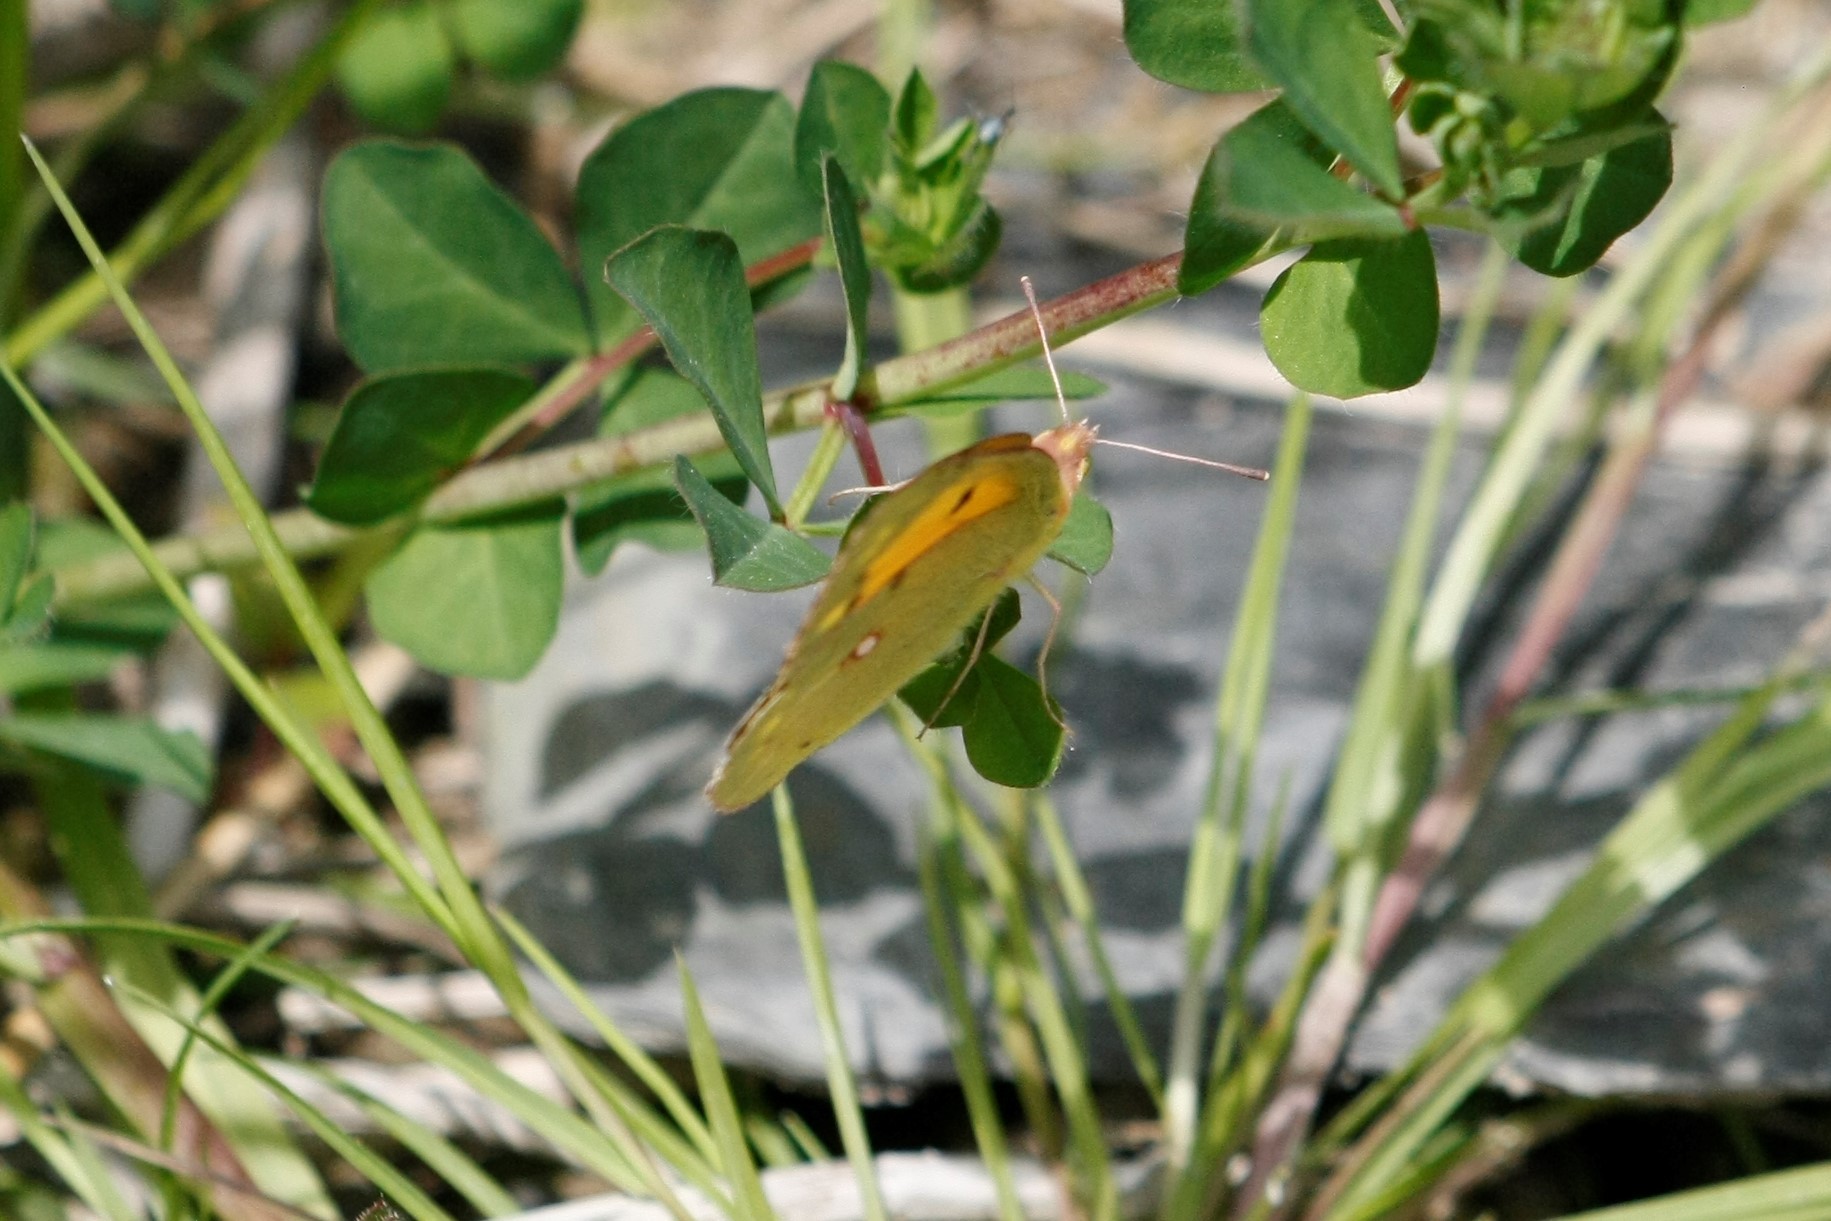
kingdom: Animalia
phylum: Arthropoda
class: Insecta
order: Lepidoptera
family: Pieridae
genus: Colias
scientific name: Colias croceus
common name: Clouded yellow
